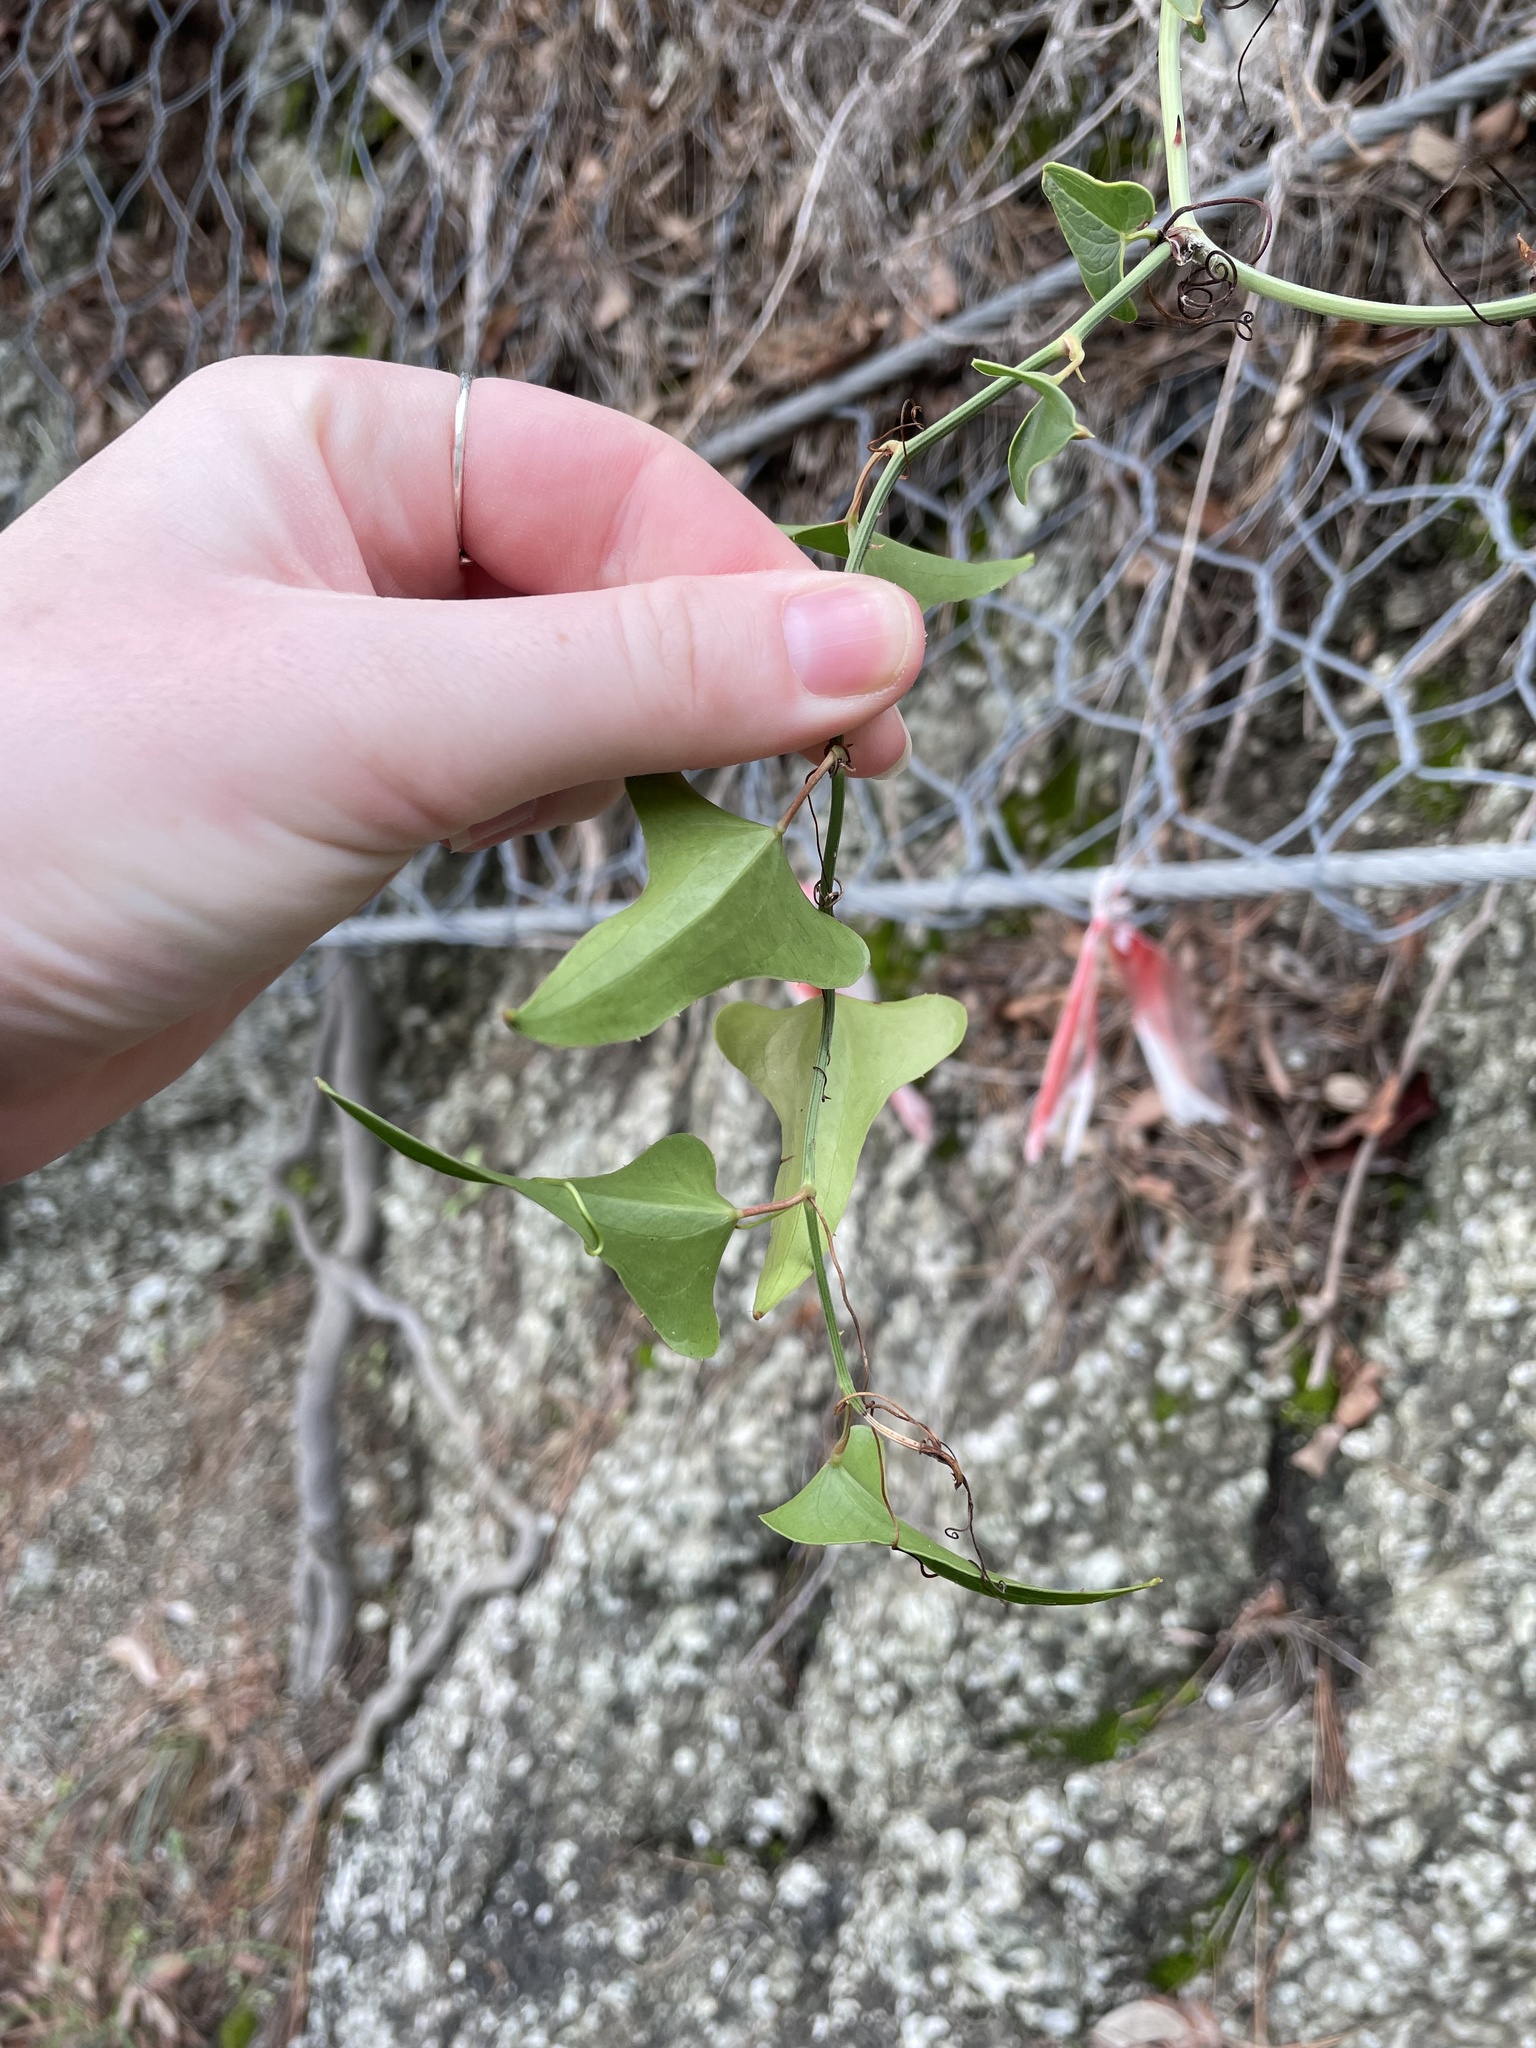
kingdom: Plantae
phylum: Tracheophyta
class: Liliopsida
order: Liliales
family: Smilacaceae
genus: Smilax
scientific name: Smilax aspera
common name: Common smilax
